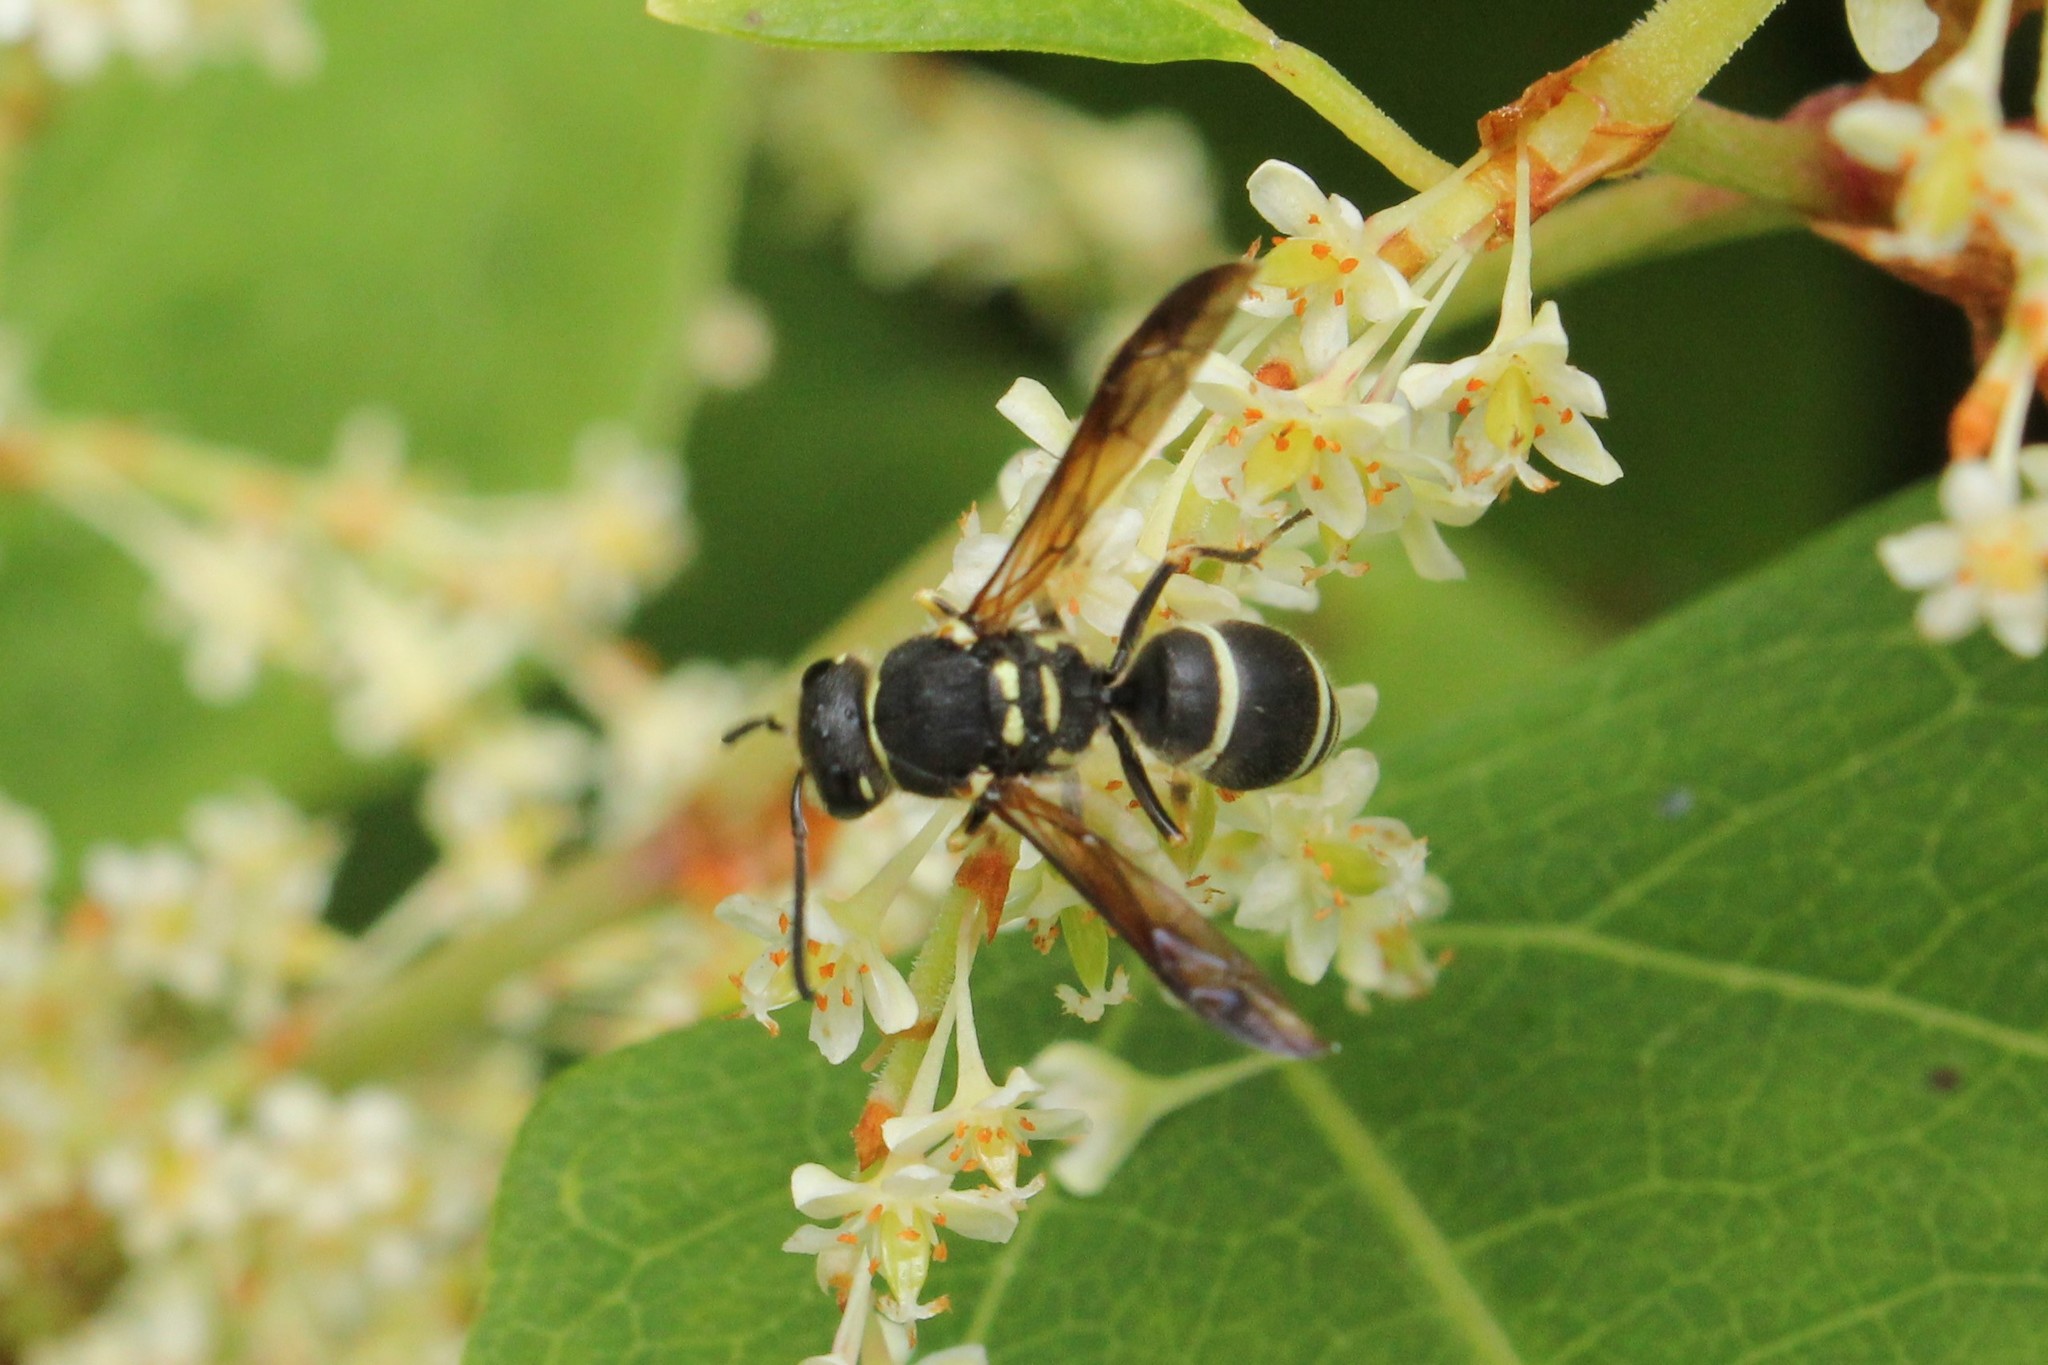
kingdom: Animalia
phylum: Arthropoda
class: Insecta
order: Hymenoptera
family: Vespidae
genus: Ancistrocerus
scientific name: Ancistrocerus catskill
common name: Vespid wasp
